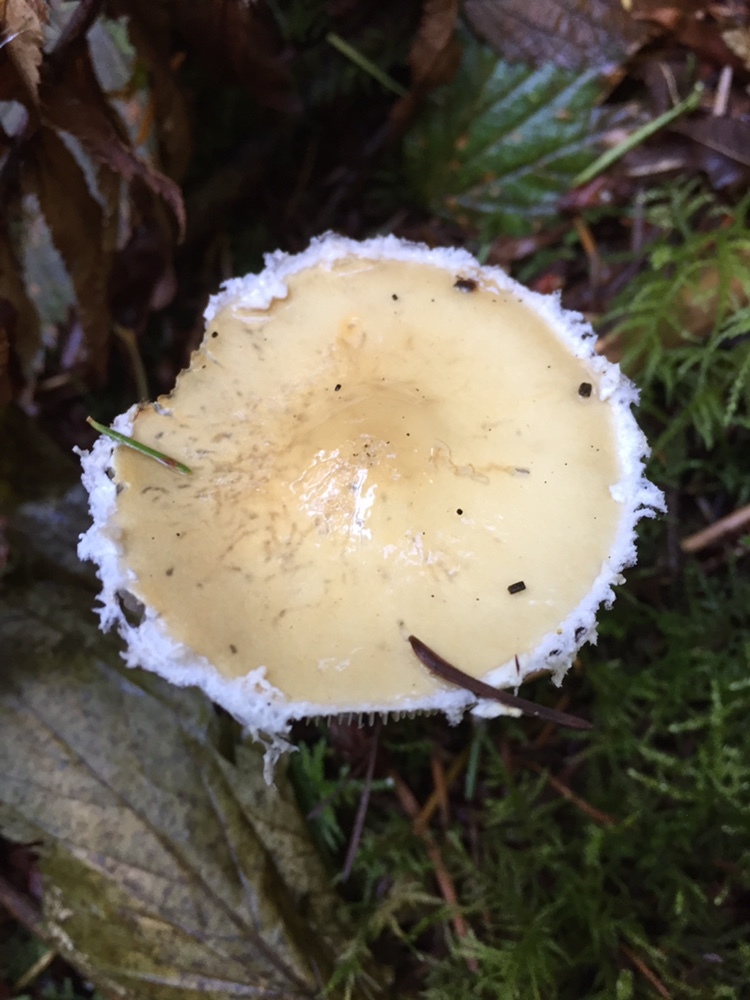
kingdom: Fungi
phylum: Basidiomycota
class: Agaricomycetes
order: Agaricales
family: Strophariaceae
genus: Stropharia
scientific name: Stropharia ambigua
